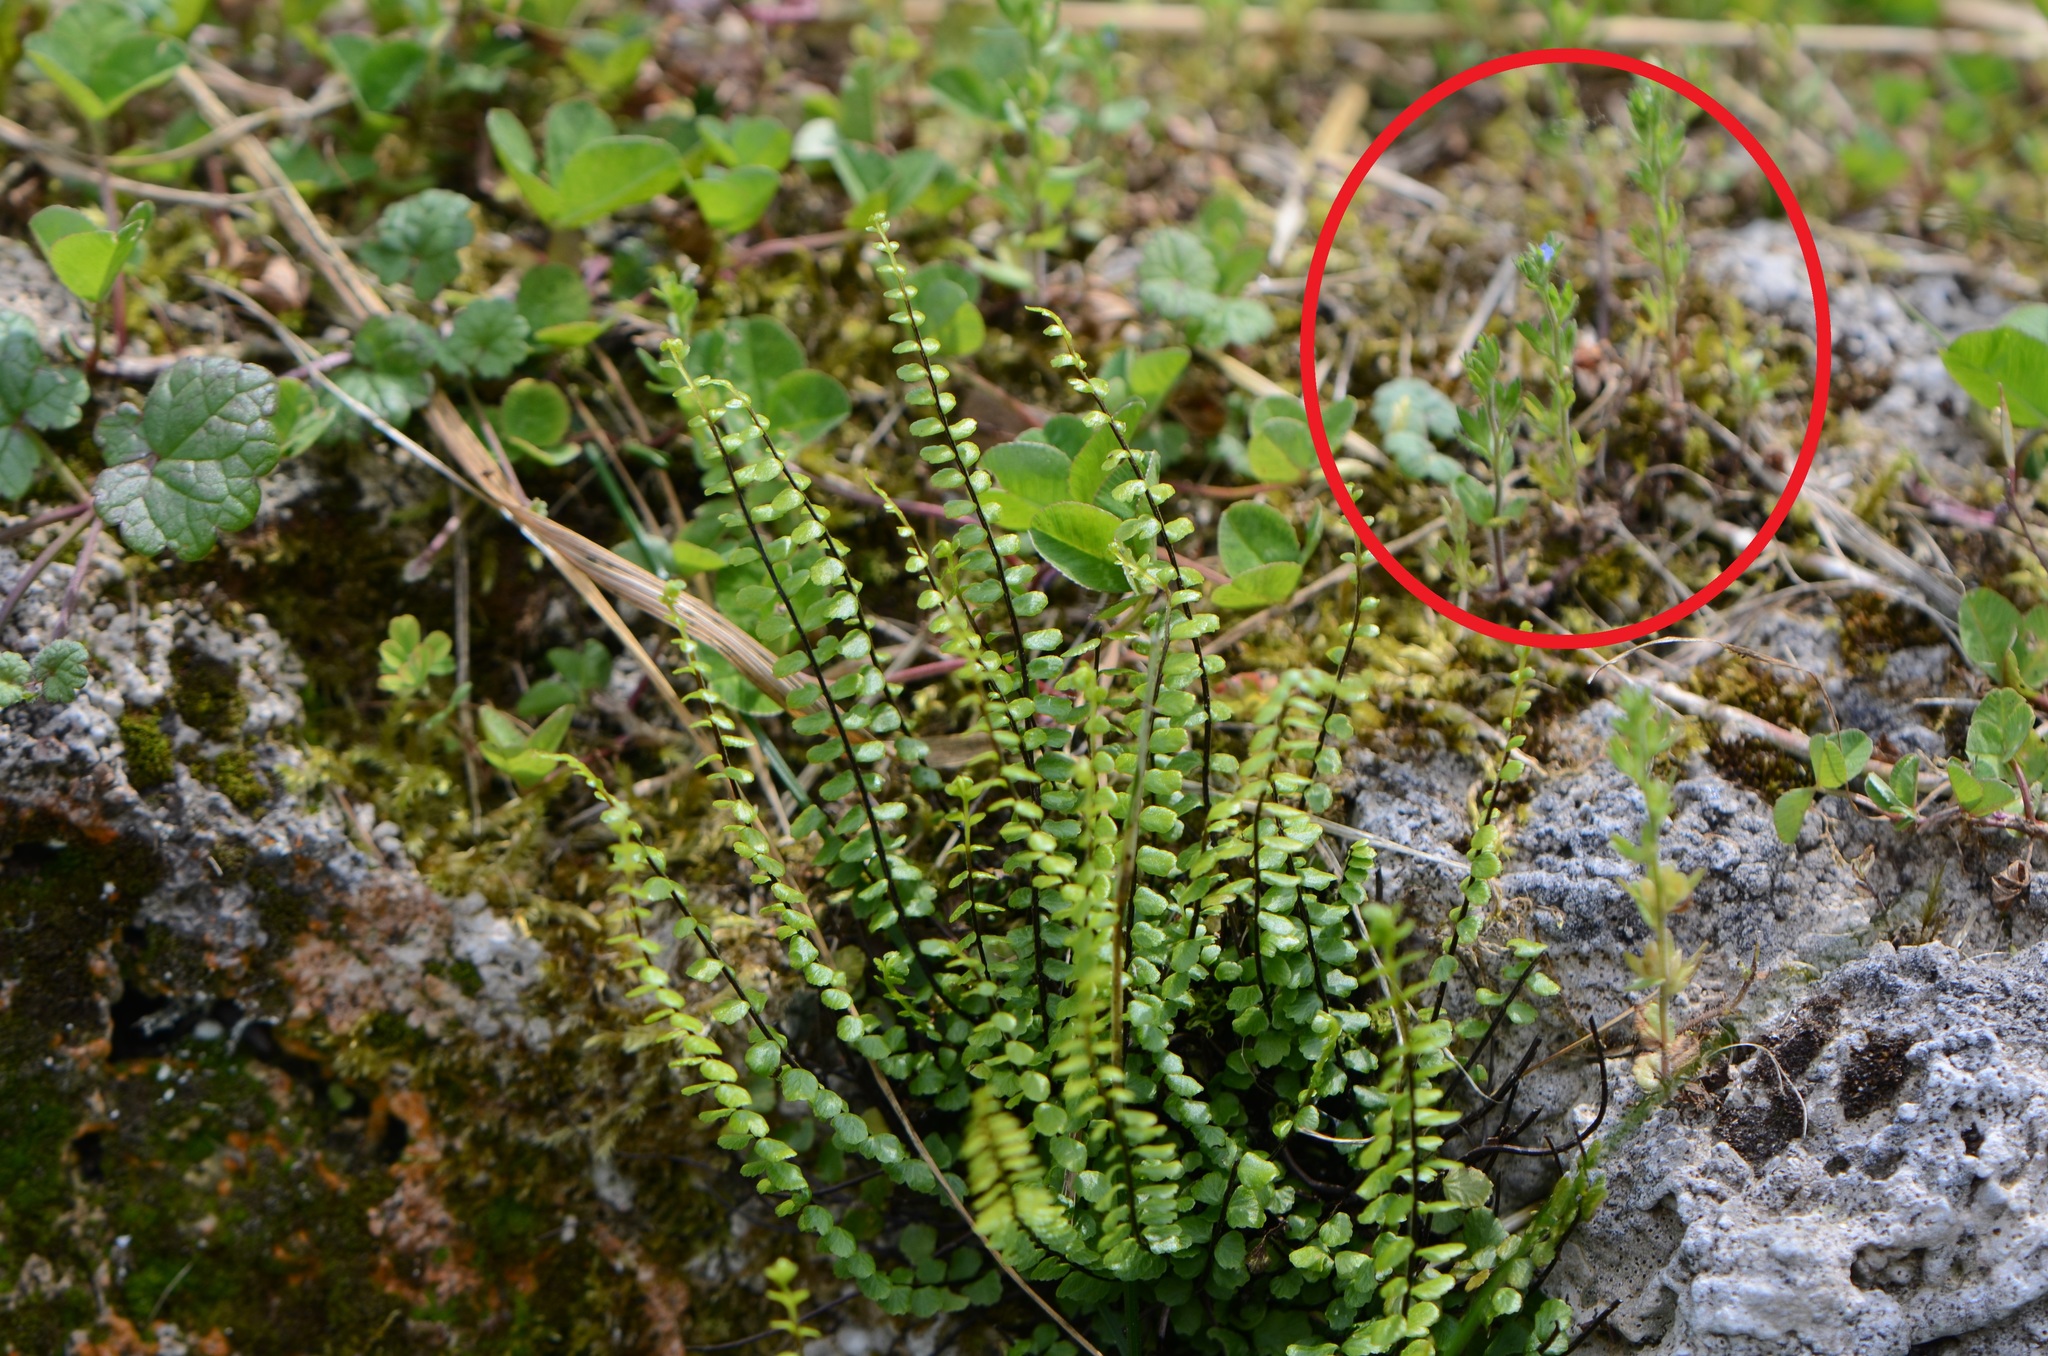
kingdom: Plantae
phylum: Tracheophyta
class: Magnoliopsida
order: Lamiales
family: Plantaginaceae
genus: Veronica
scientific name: Veronica arvensis
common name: Corn speedwell
